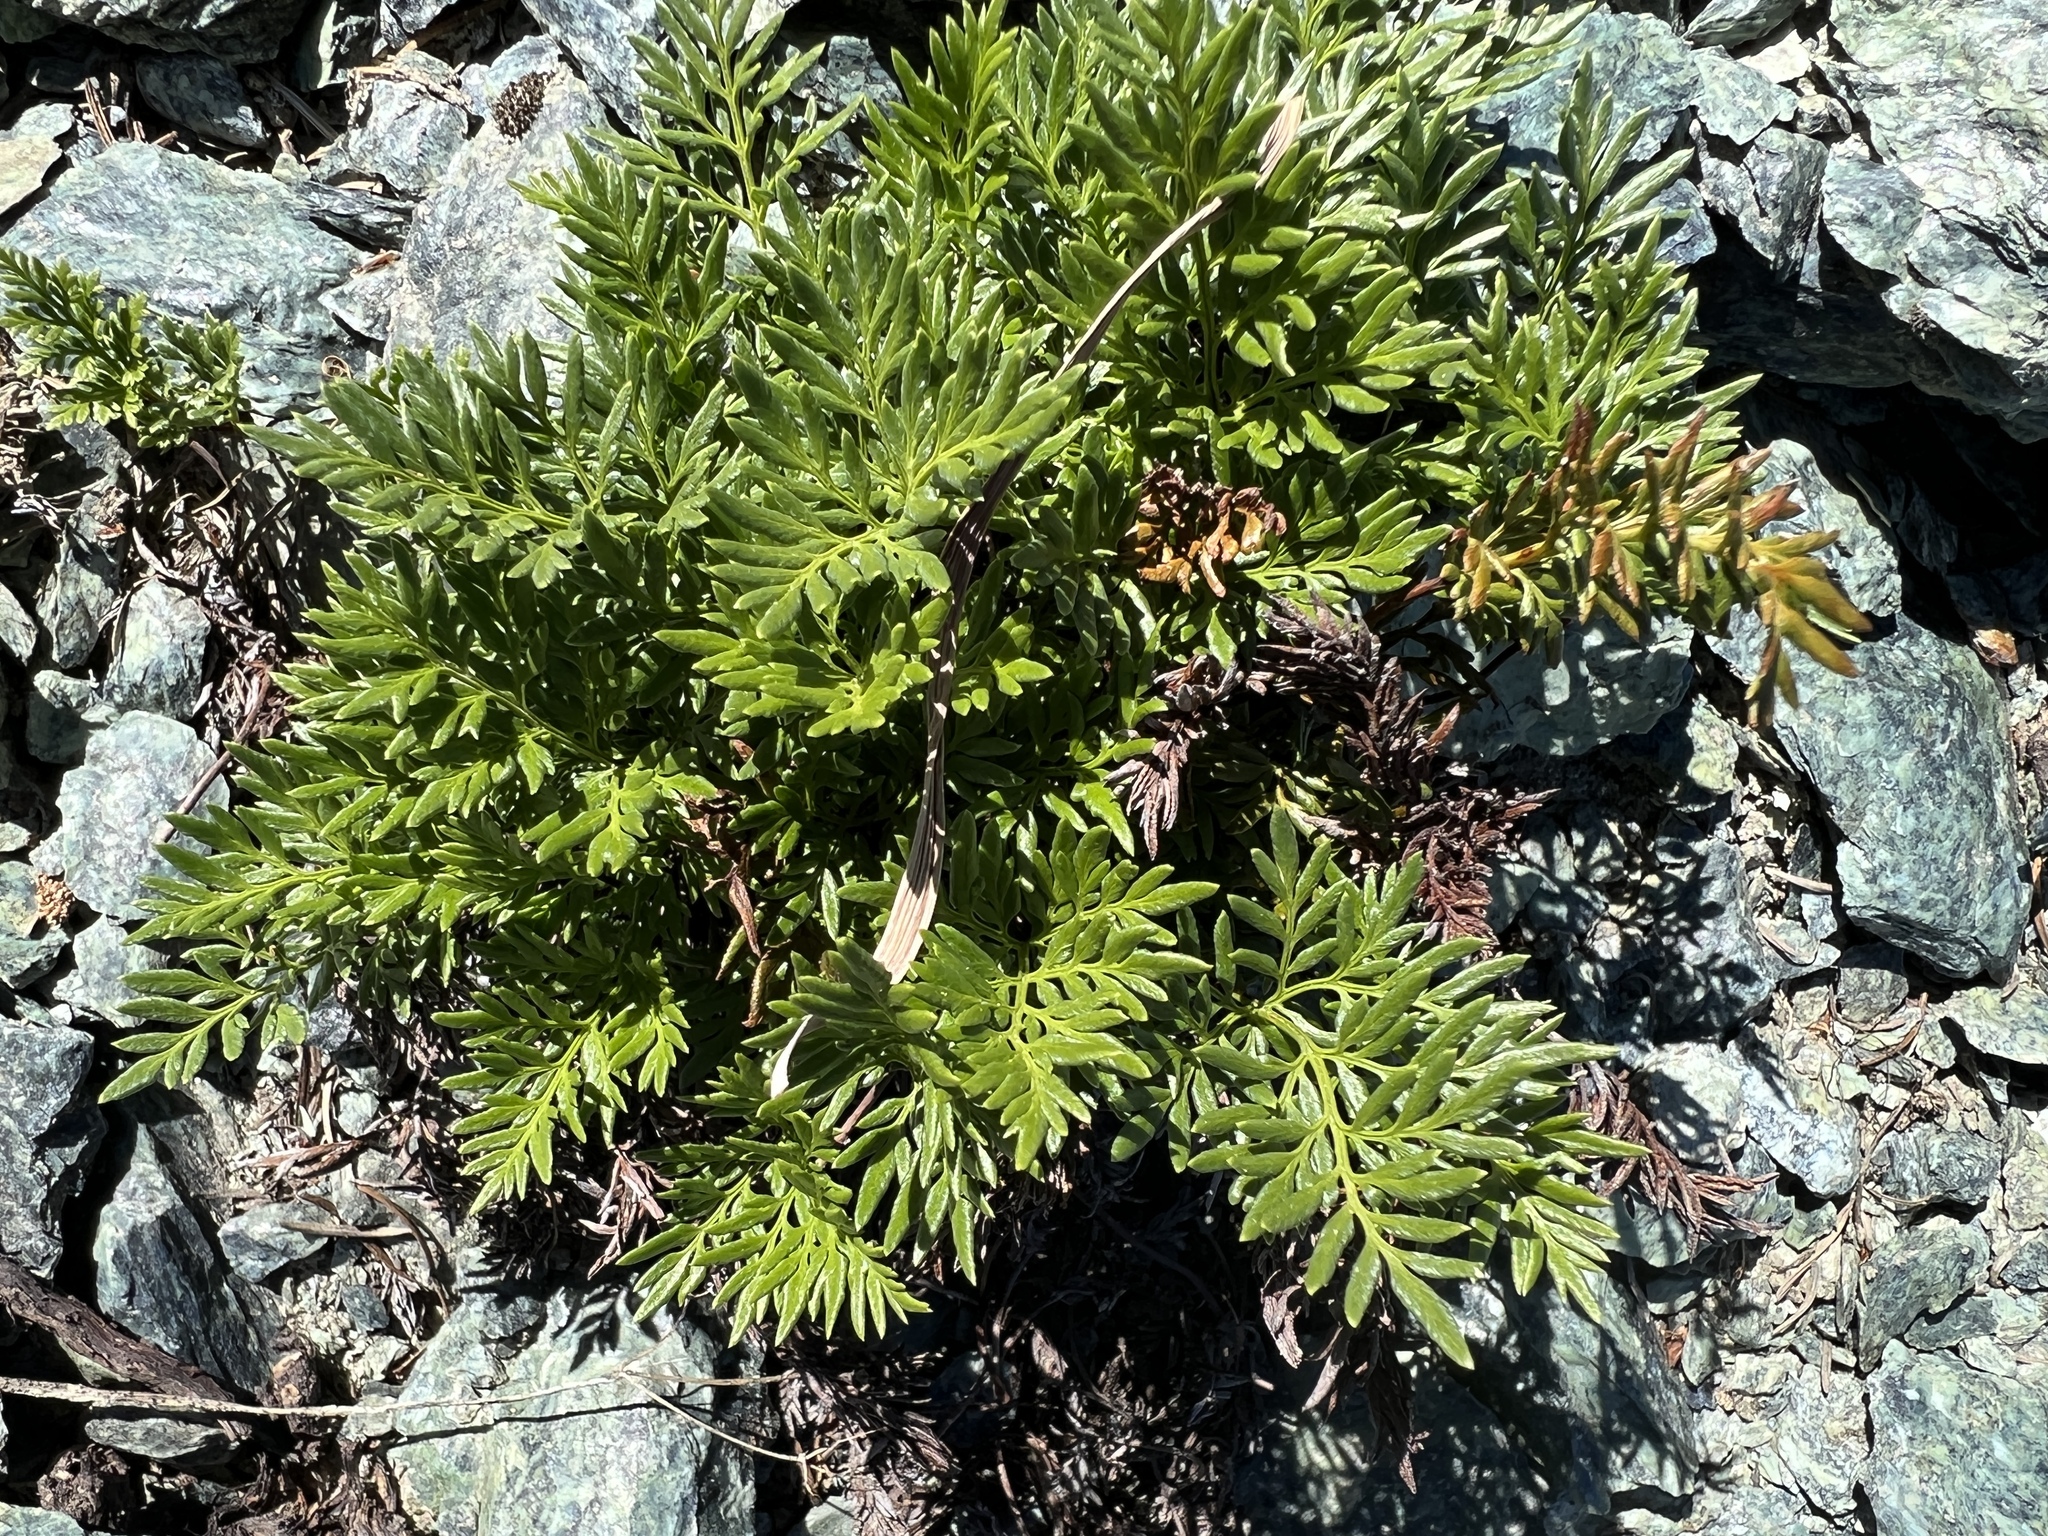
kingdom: Plantae
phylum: Tracheophyta
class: Polypodiopsida
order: Polypodiales
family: Pteridaceae
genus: Aspidotis
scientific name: Aspidotis densa
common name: Indian's dream
